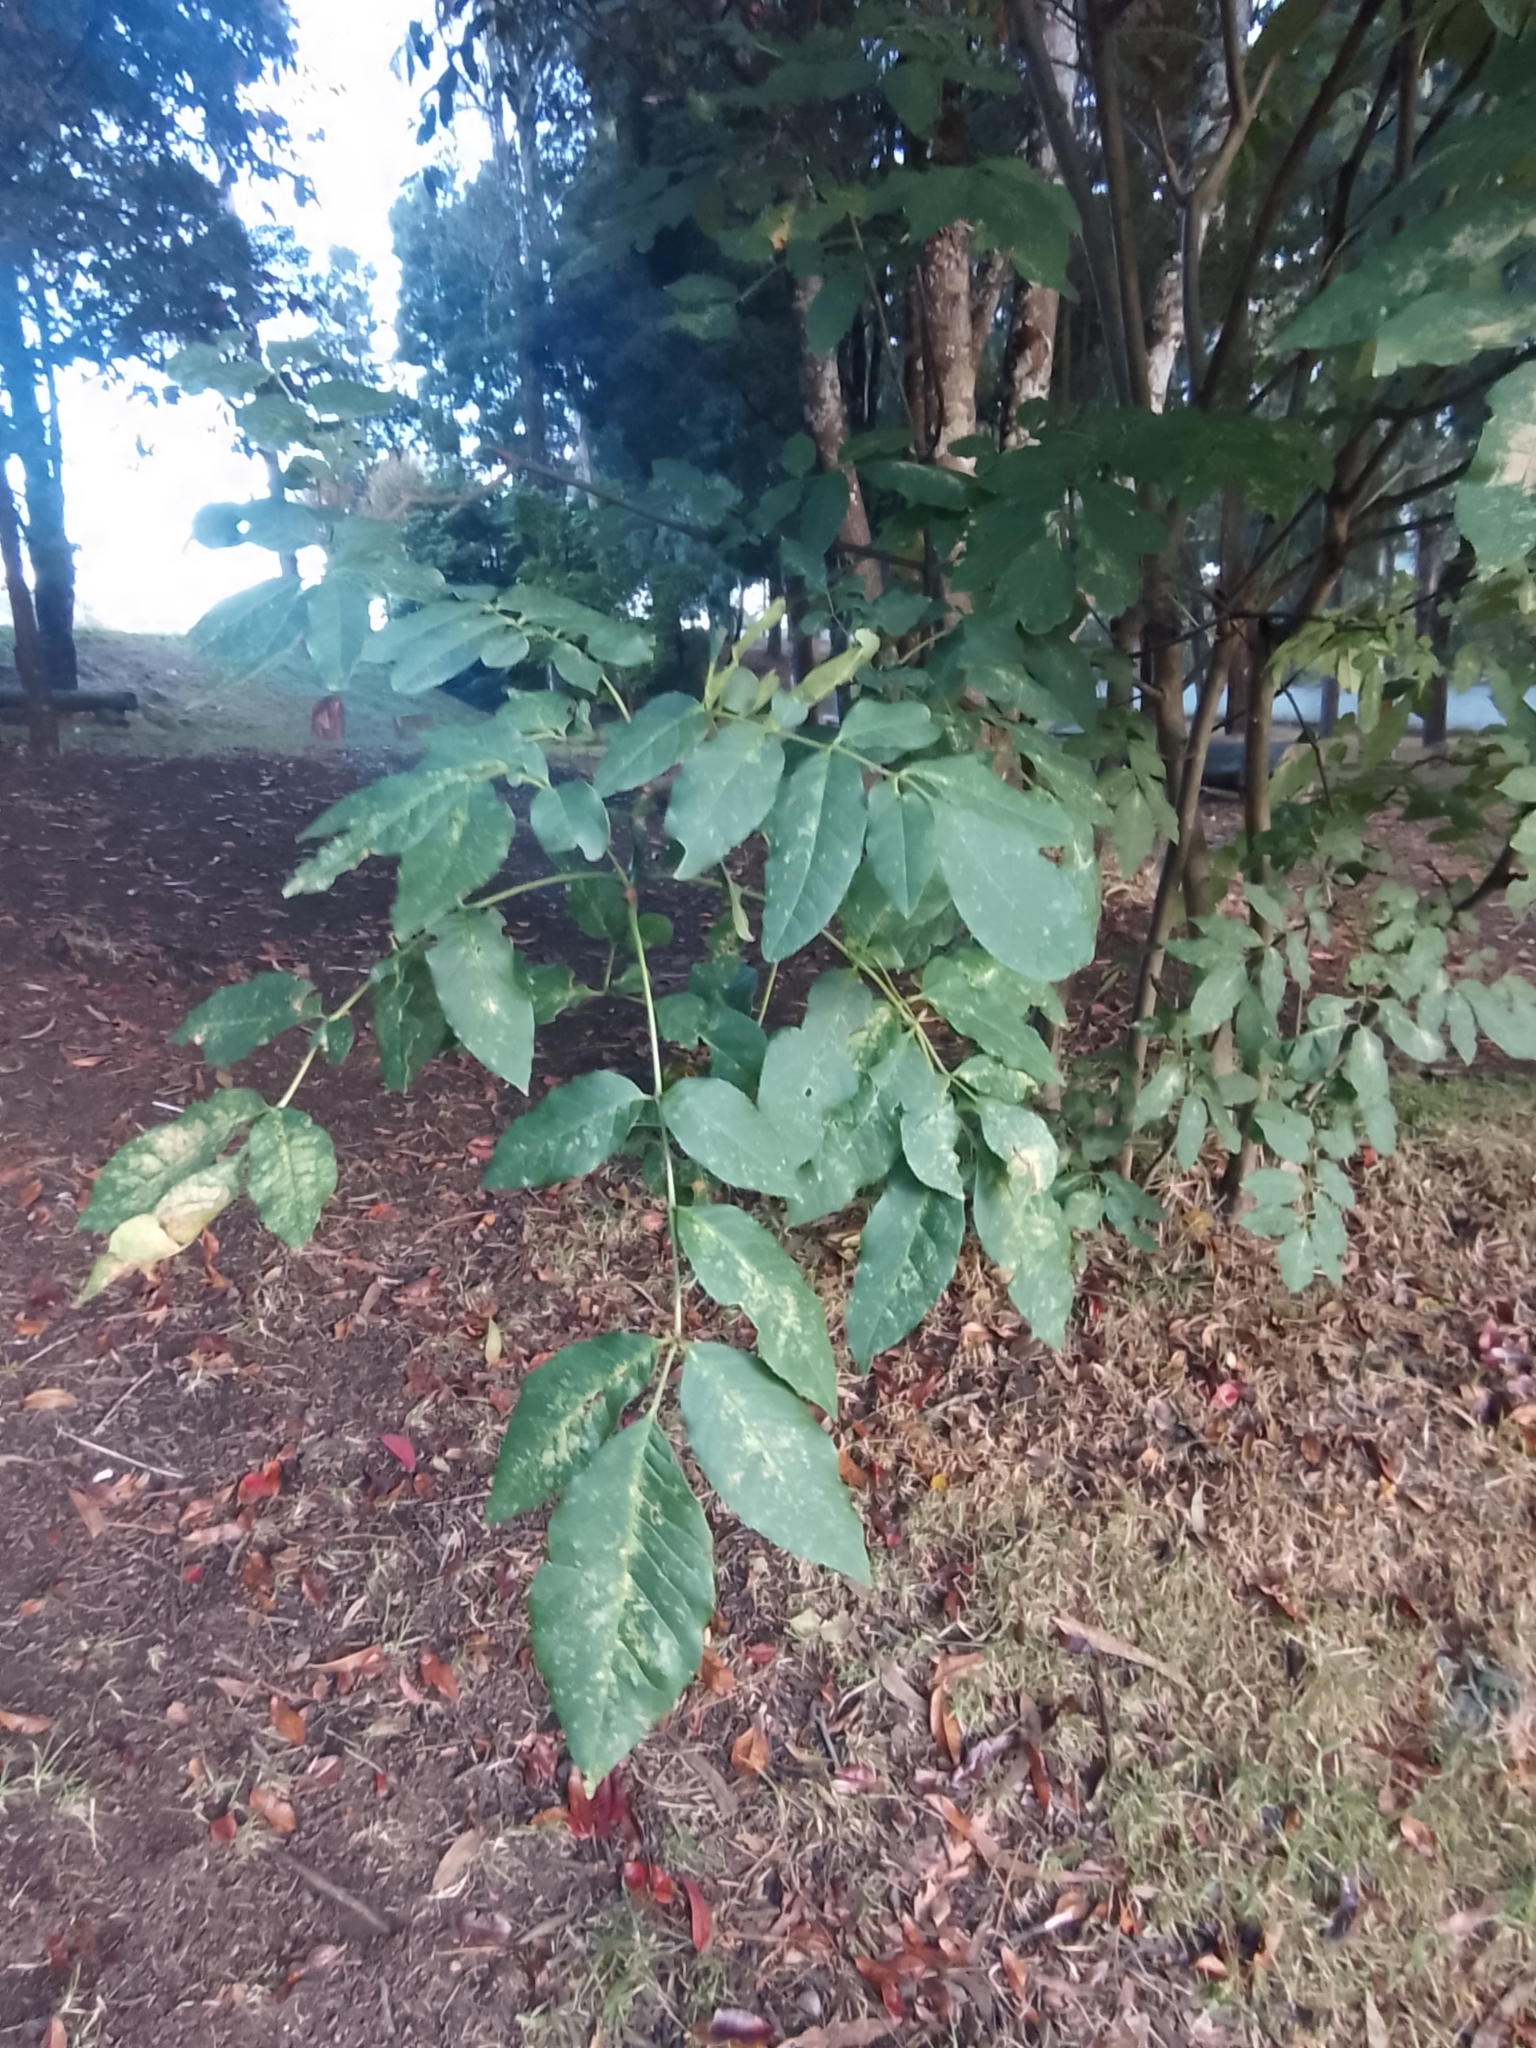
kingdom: Plantae
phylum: Tracheophyta
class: Magnoliopsida
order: Lamiales
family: Oleaceae
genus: Fraxinus
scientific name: Fraxinus uhdei
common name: Shamel ash
